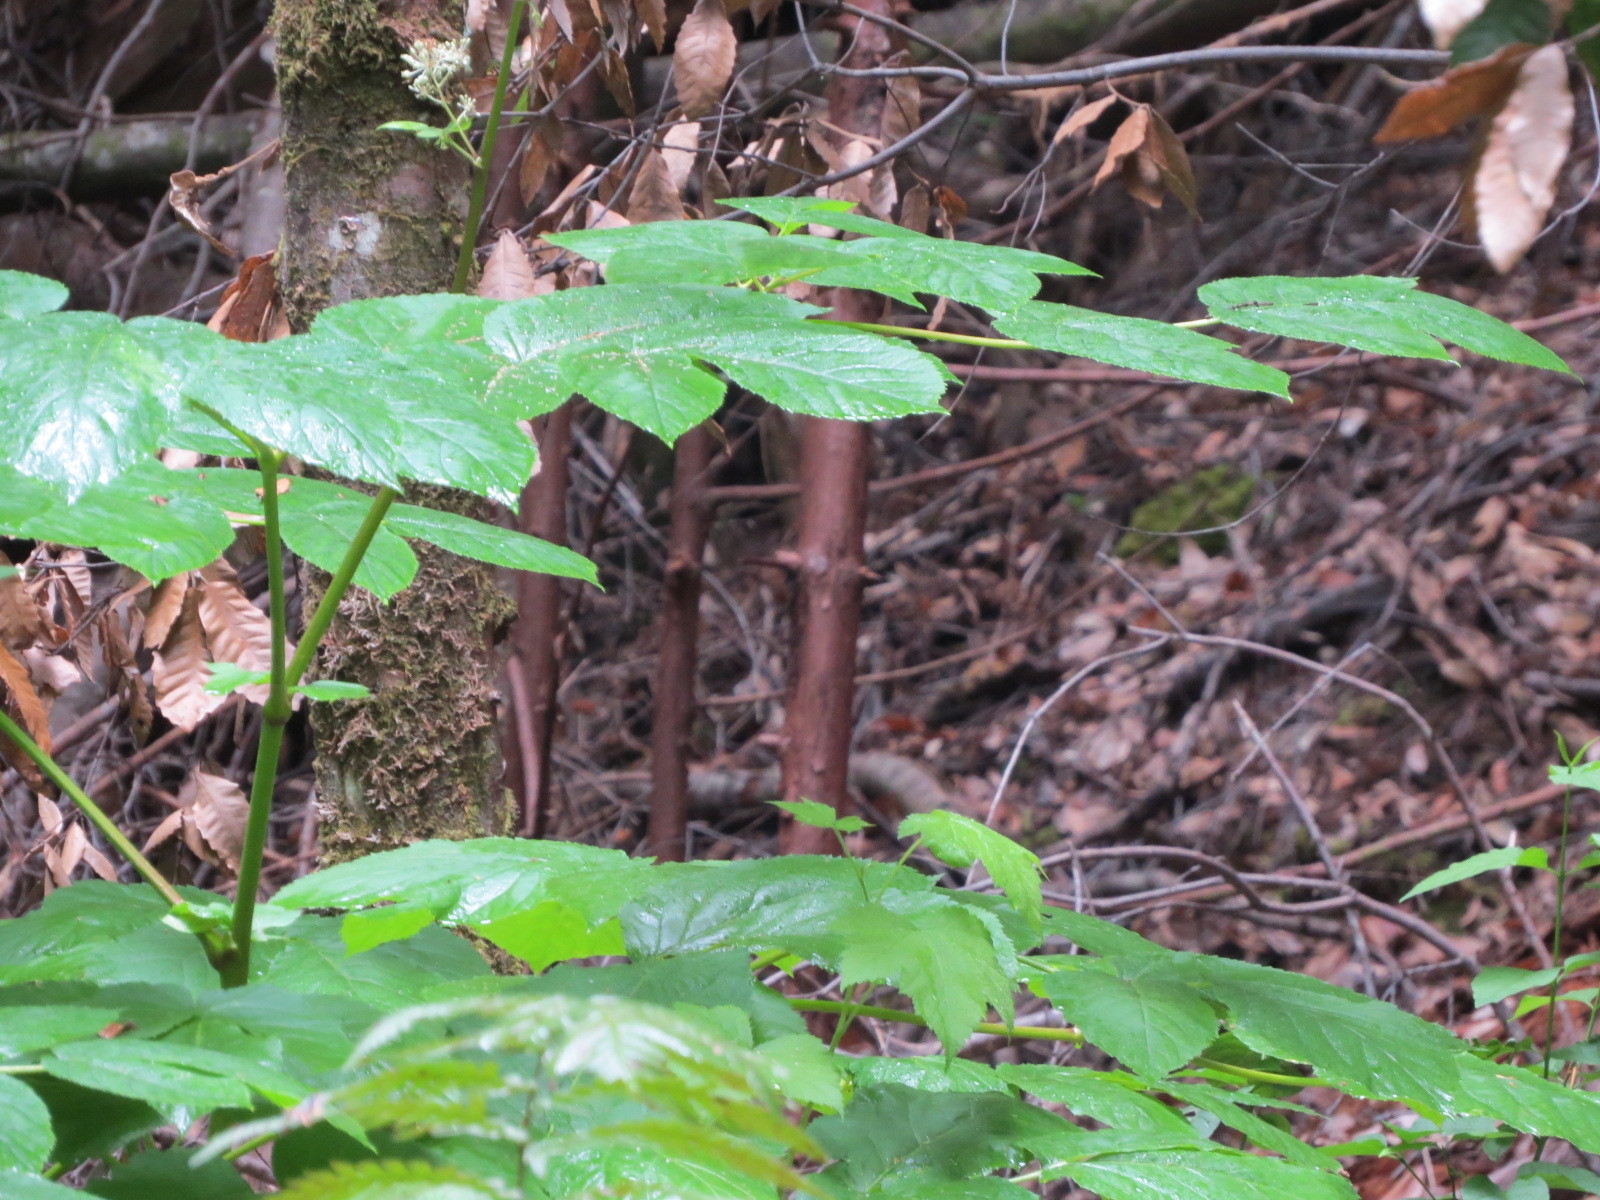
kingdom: Plantae
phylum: Tracheophyta
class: Magnoliopsida
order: Apiales
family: Araliaceae
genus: Aralia
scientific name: Aralia californica
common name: California-ginseng
